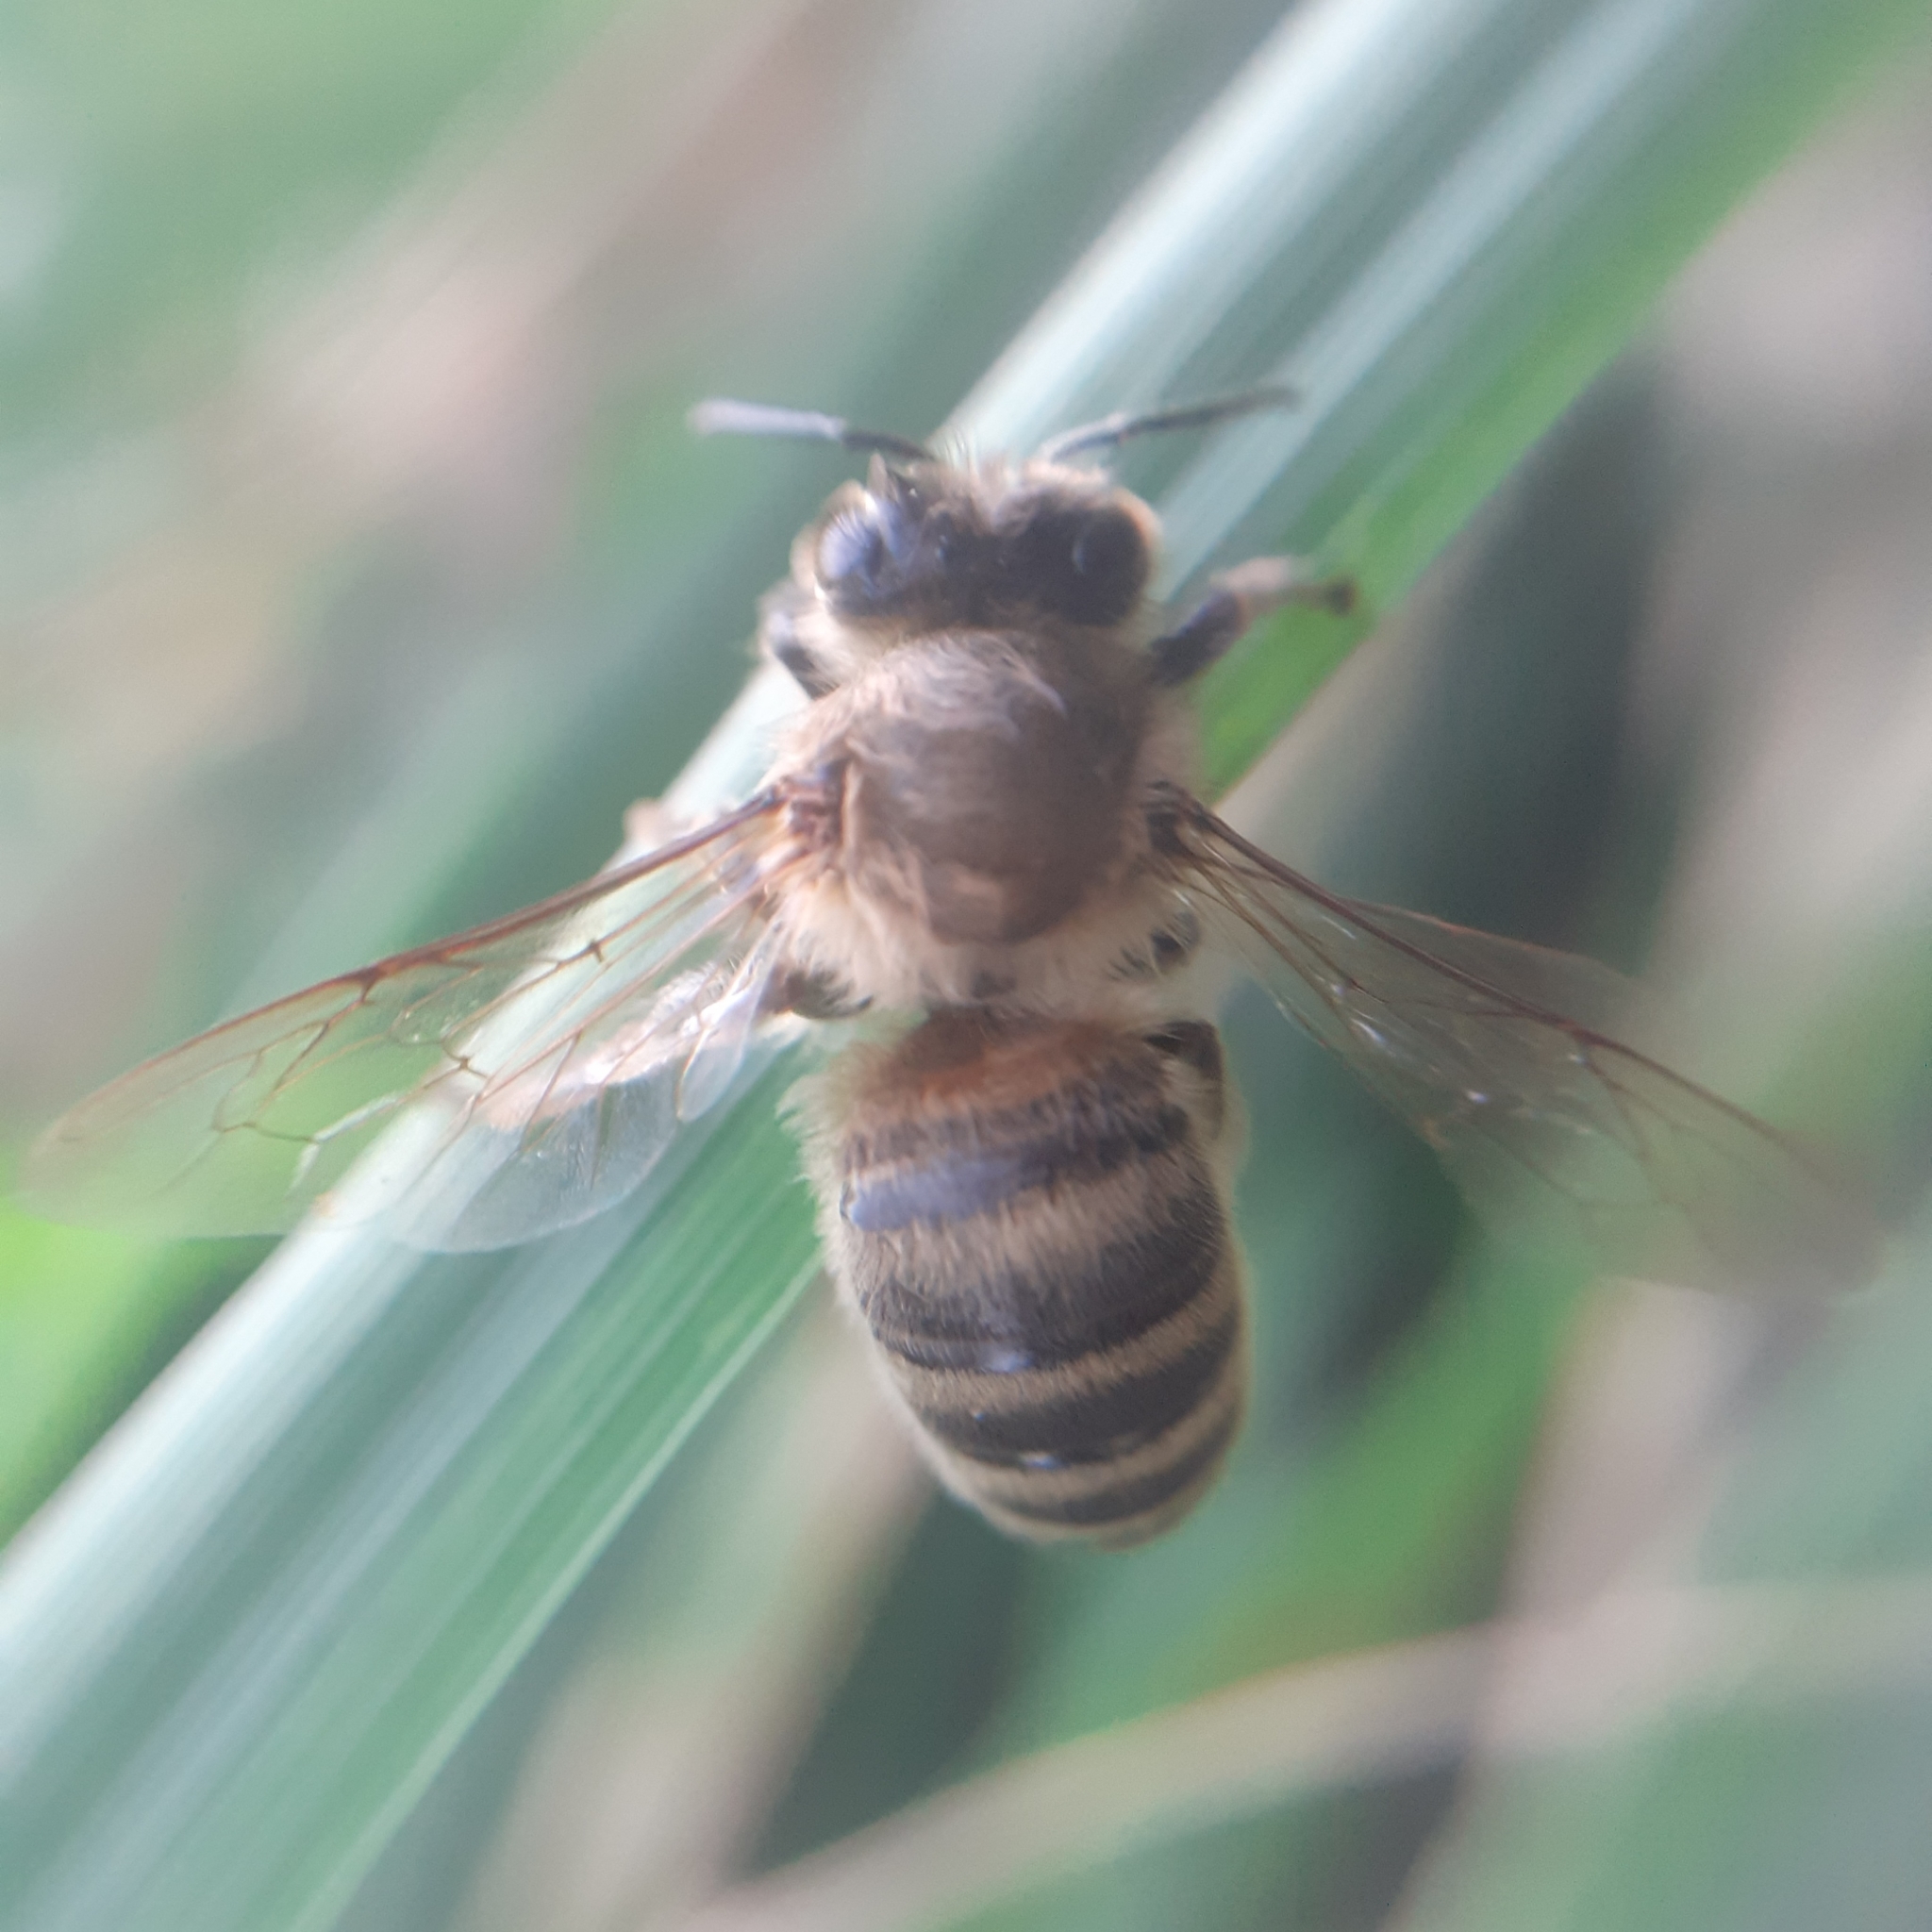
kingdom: Animalia
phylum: Arthropoda
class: Insecta
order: Hymenoptera
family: Apidae
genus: Apis
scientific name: Apis mellifera
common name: Honey bee
